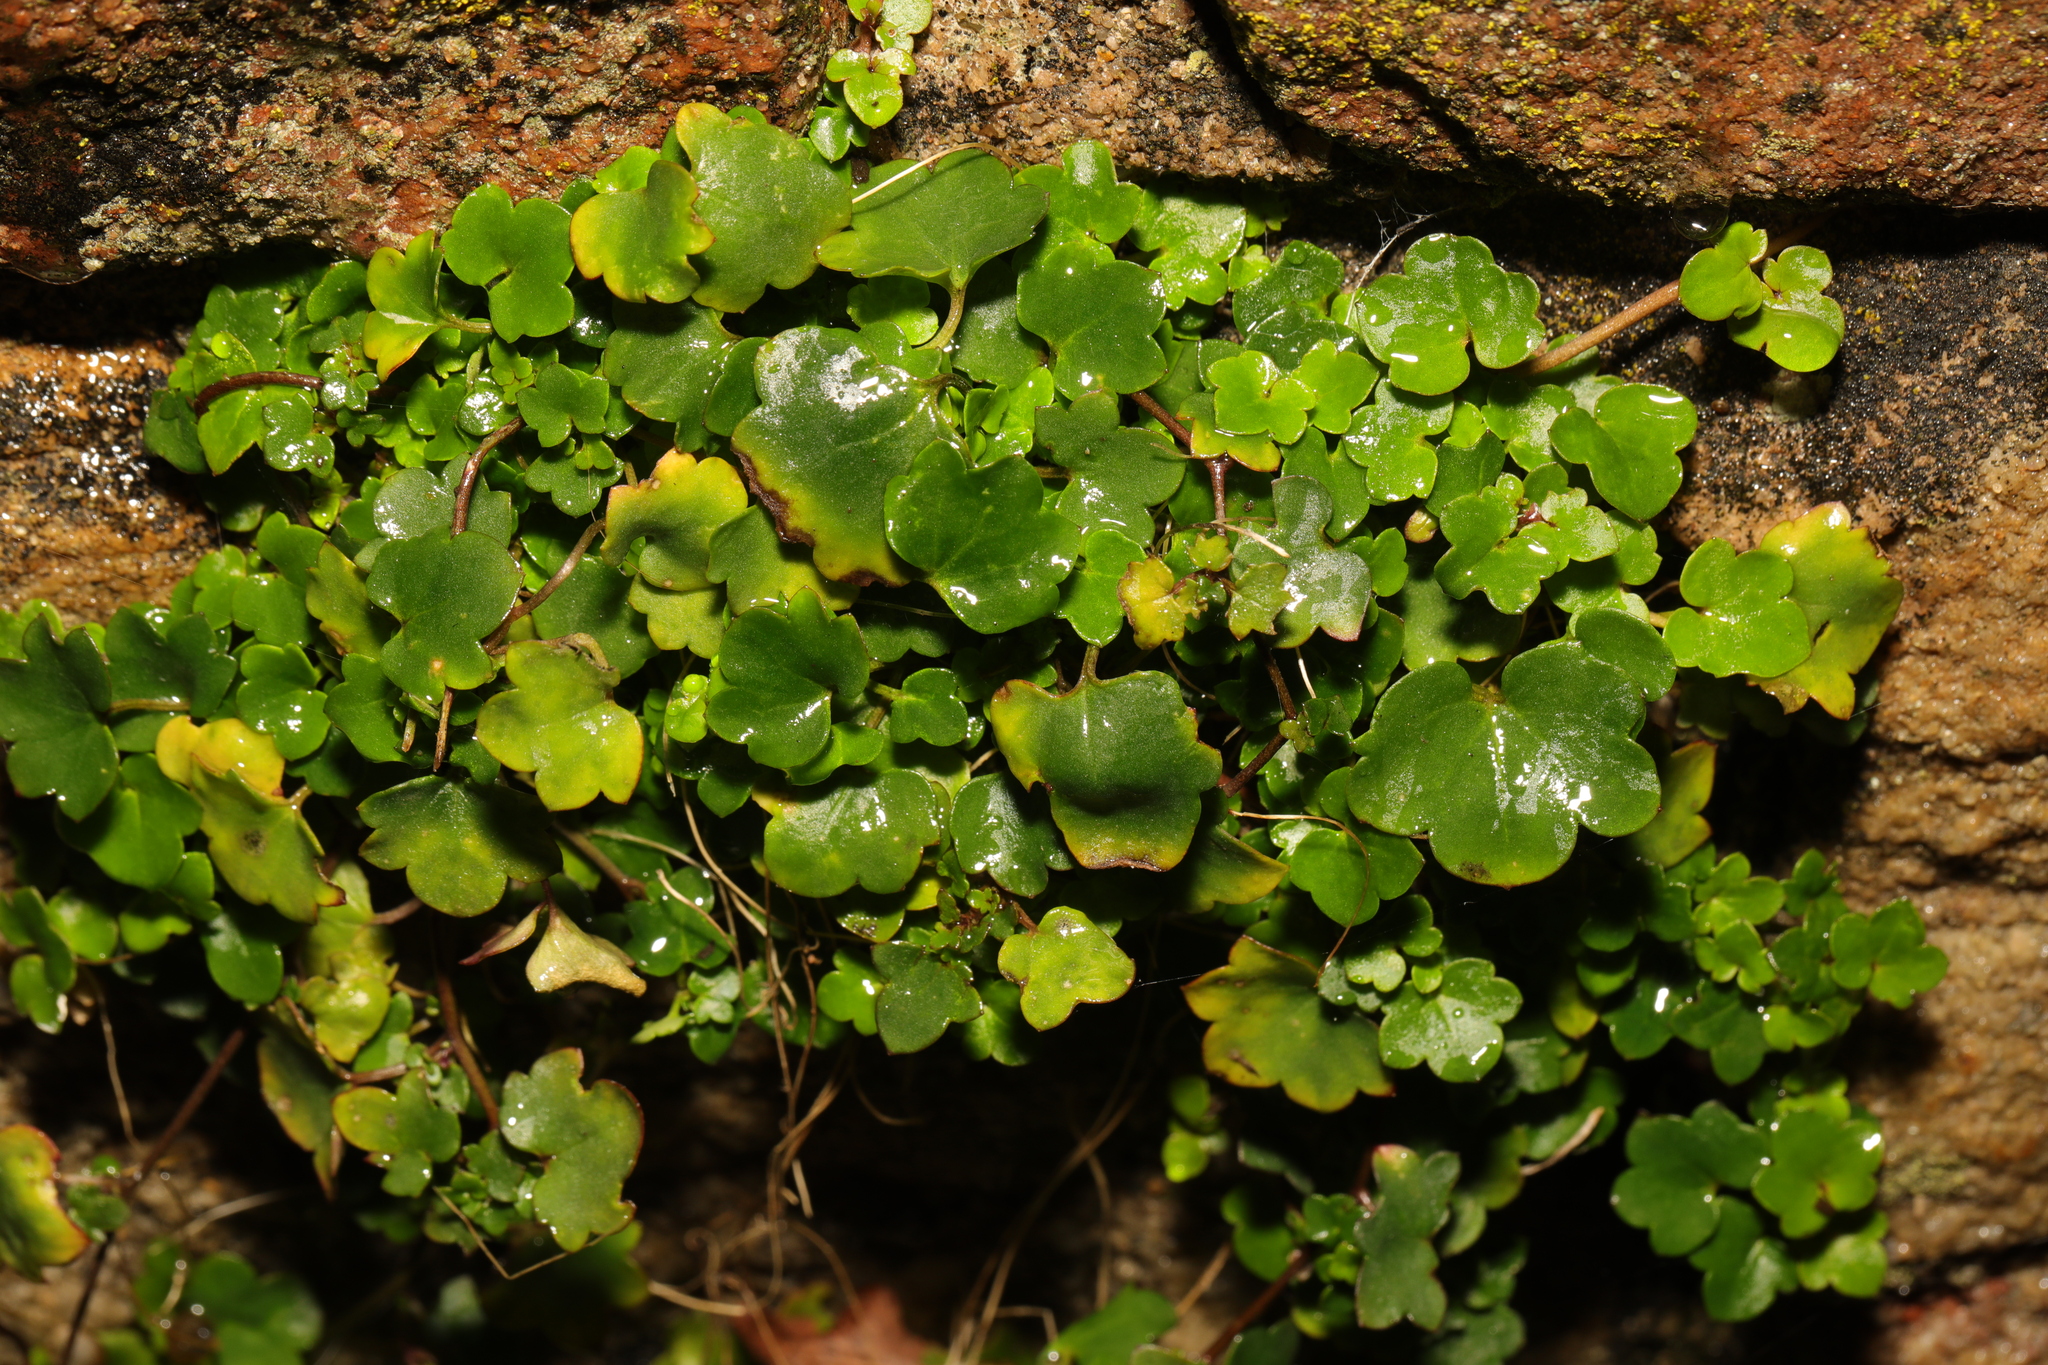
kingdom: Plantae
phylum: Tracheophyta
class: Magnoliopsida
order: Lamiales
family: Plantaginaceae
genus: Cymbalaria
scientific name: Cymbalaria muralis
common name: Ivy-leaved toadflax
